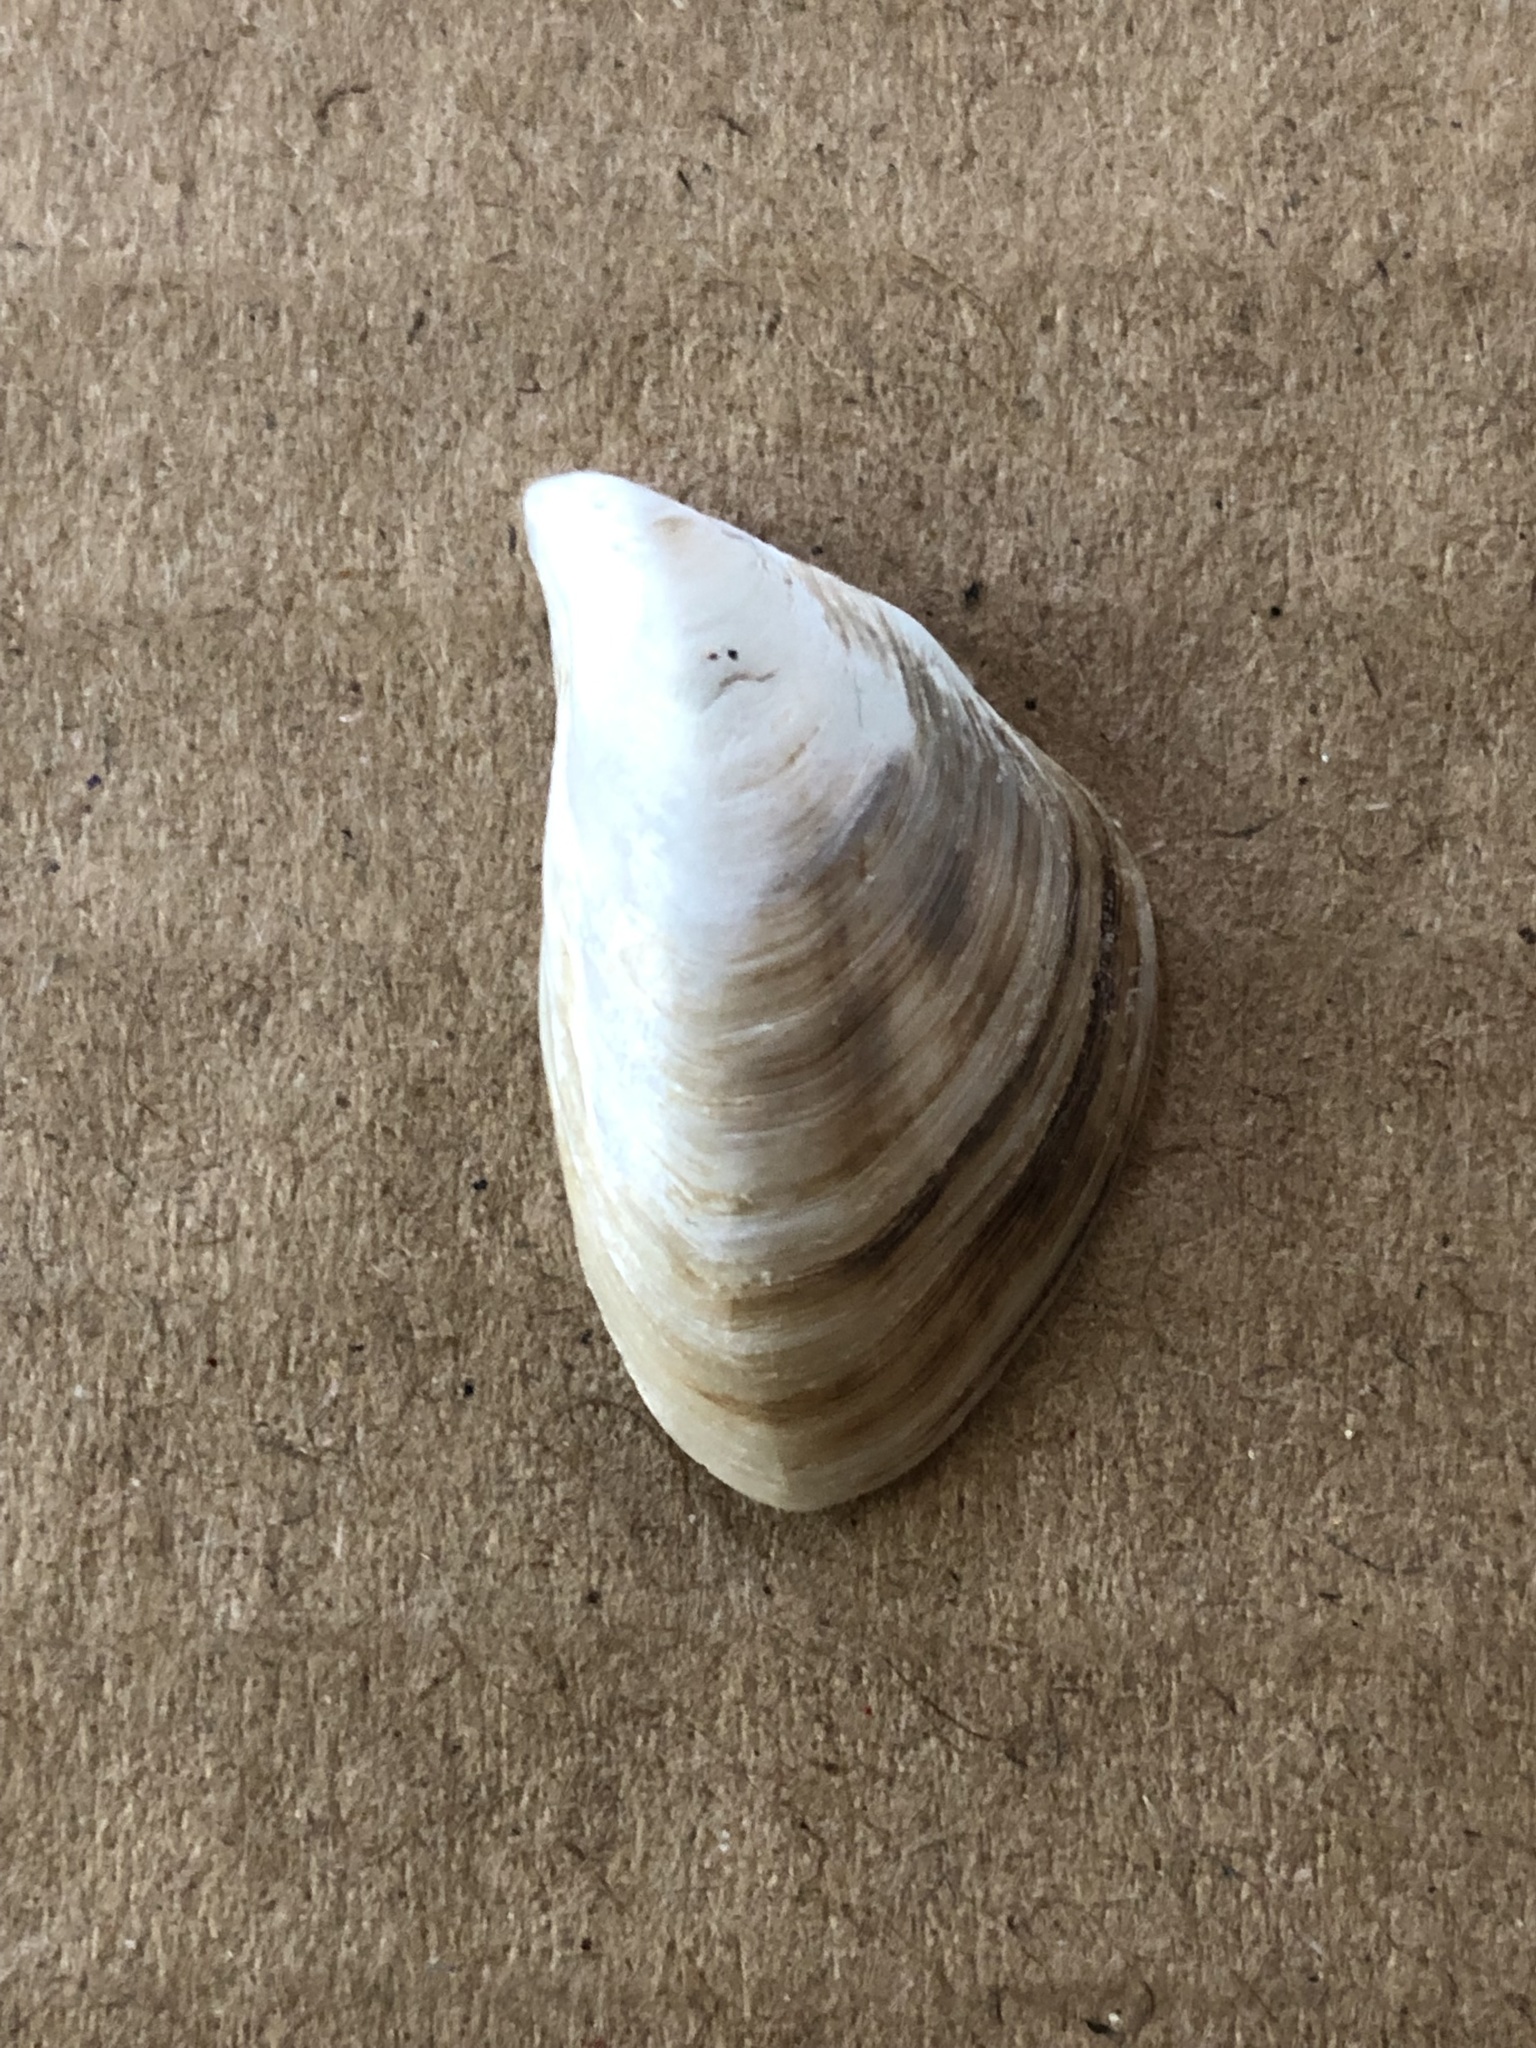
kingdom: Animalia
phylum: Mollusca
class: Bivalvia
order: Myida
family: Dreissenidae
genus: Dreissena
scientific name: Dreissena bugensis
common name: Quagga mussel
